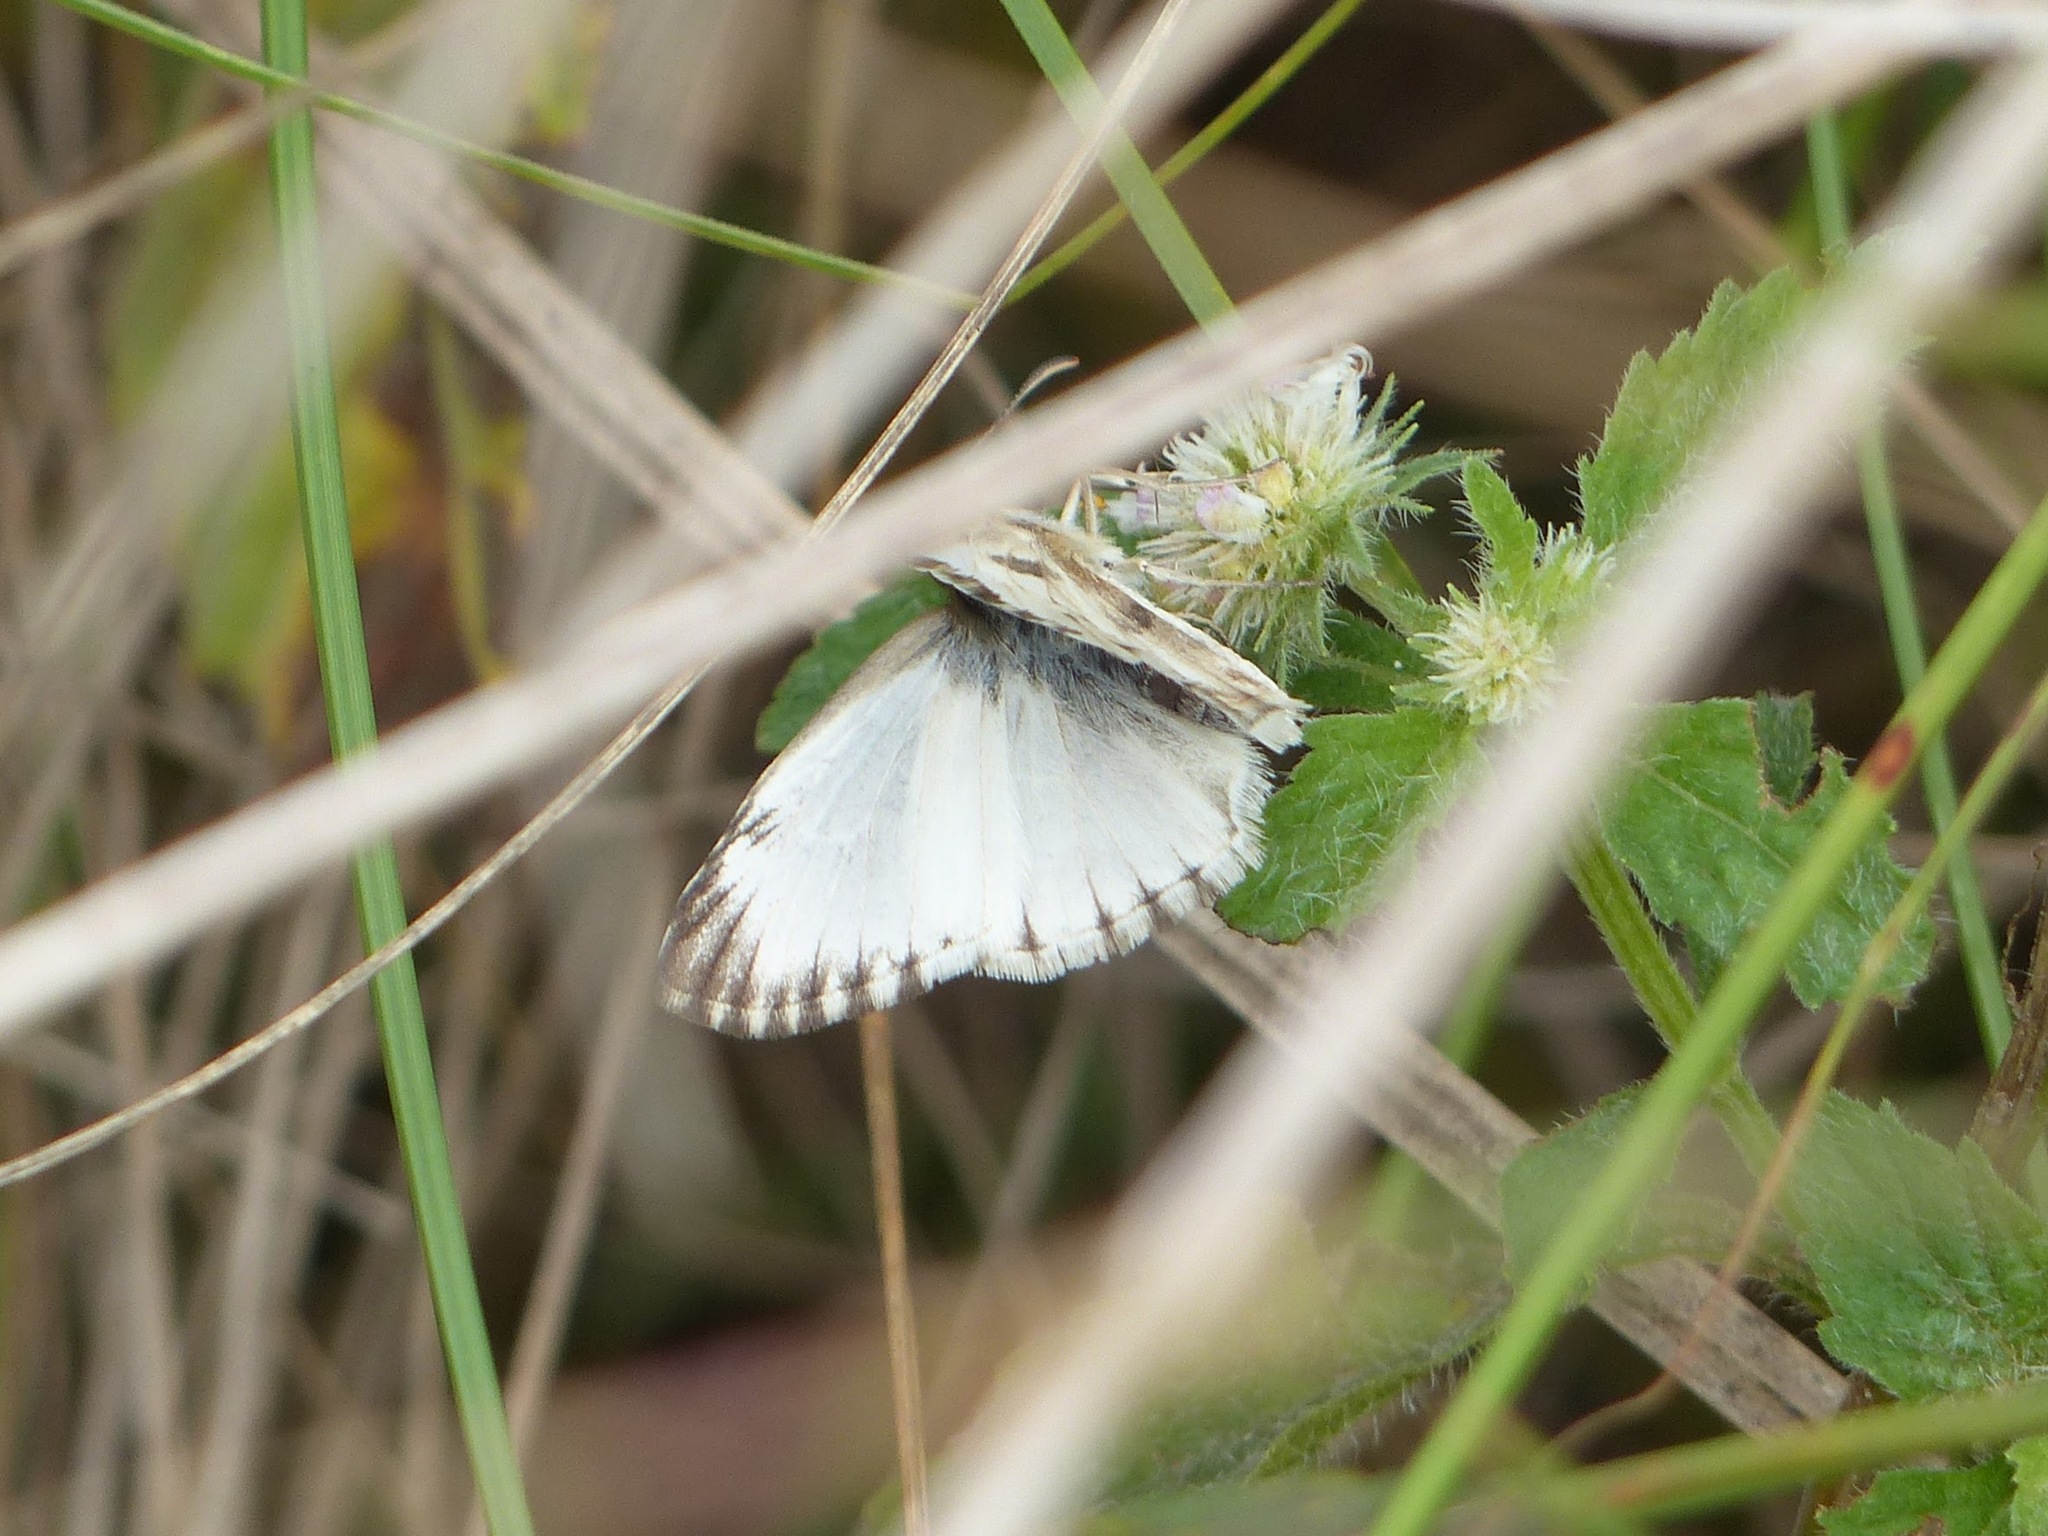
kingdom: Animalia
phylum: Arthropoda
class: Insecta
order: Lepidoptera
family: Hesperiidae
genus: Heliopetes
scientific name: Heliopetes omrina
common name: Stained white-skipper
